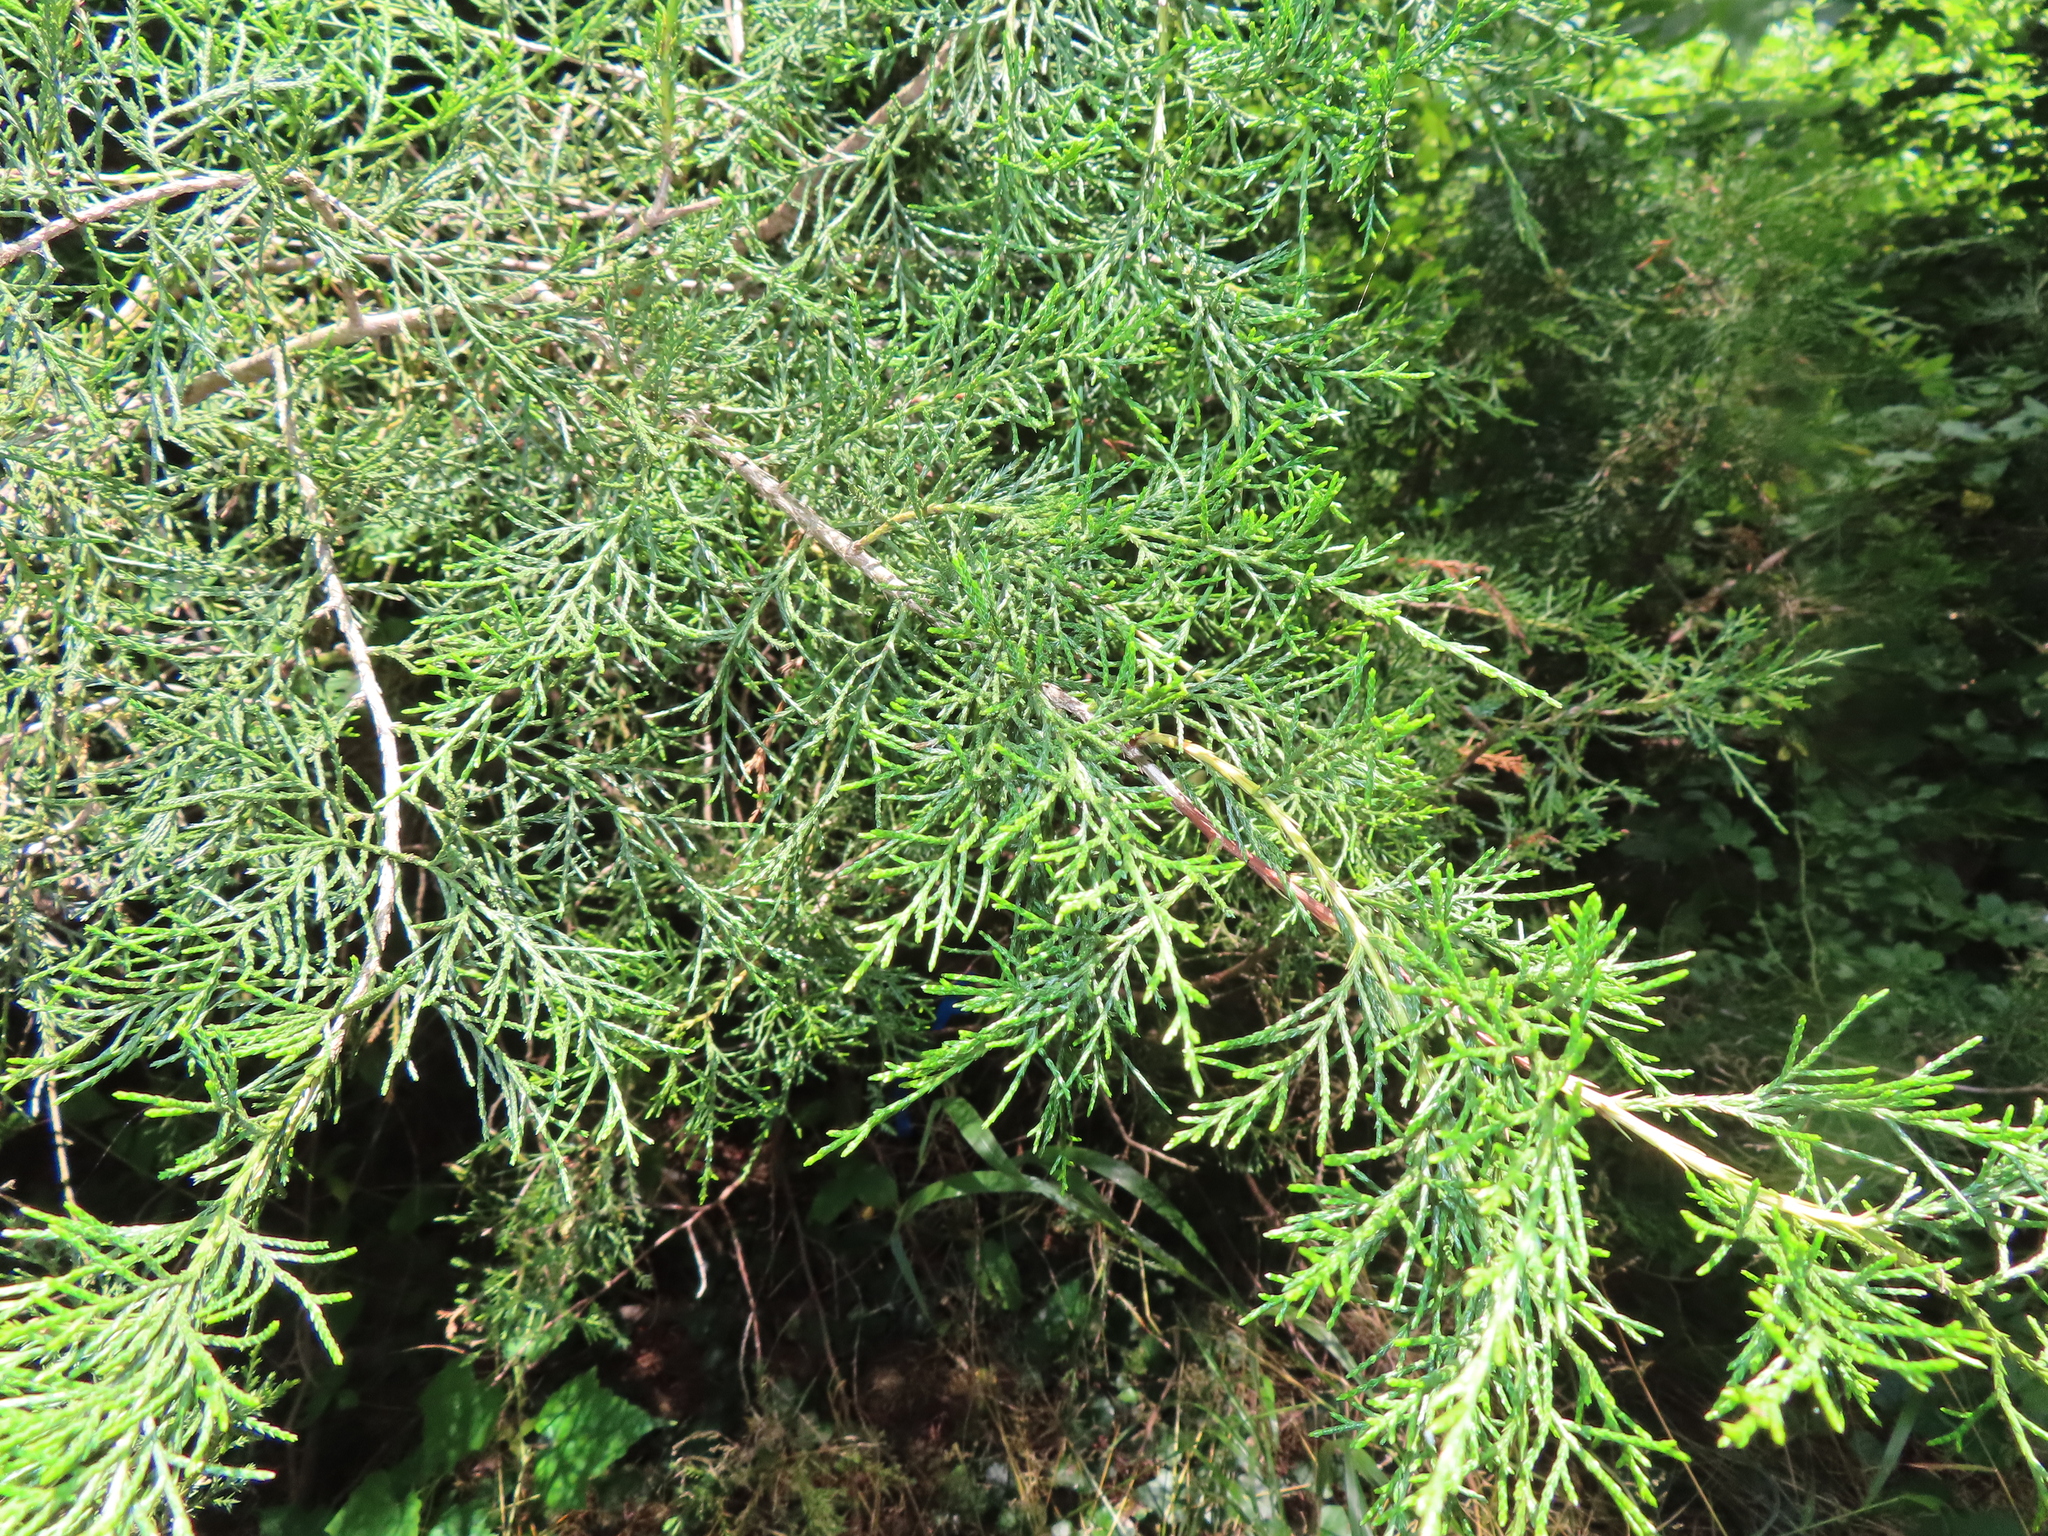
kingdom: Plantae
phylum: Tracheophyta
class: Pinopsida
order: Pinales
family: Cupressaceae
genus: Juniperus
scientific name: Juniperus virginiana
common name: Red juniper
